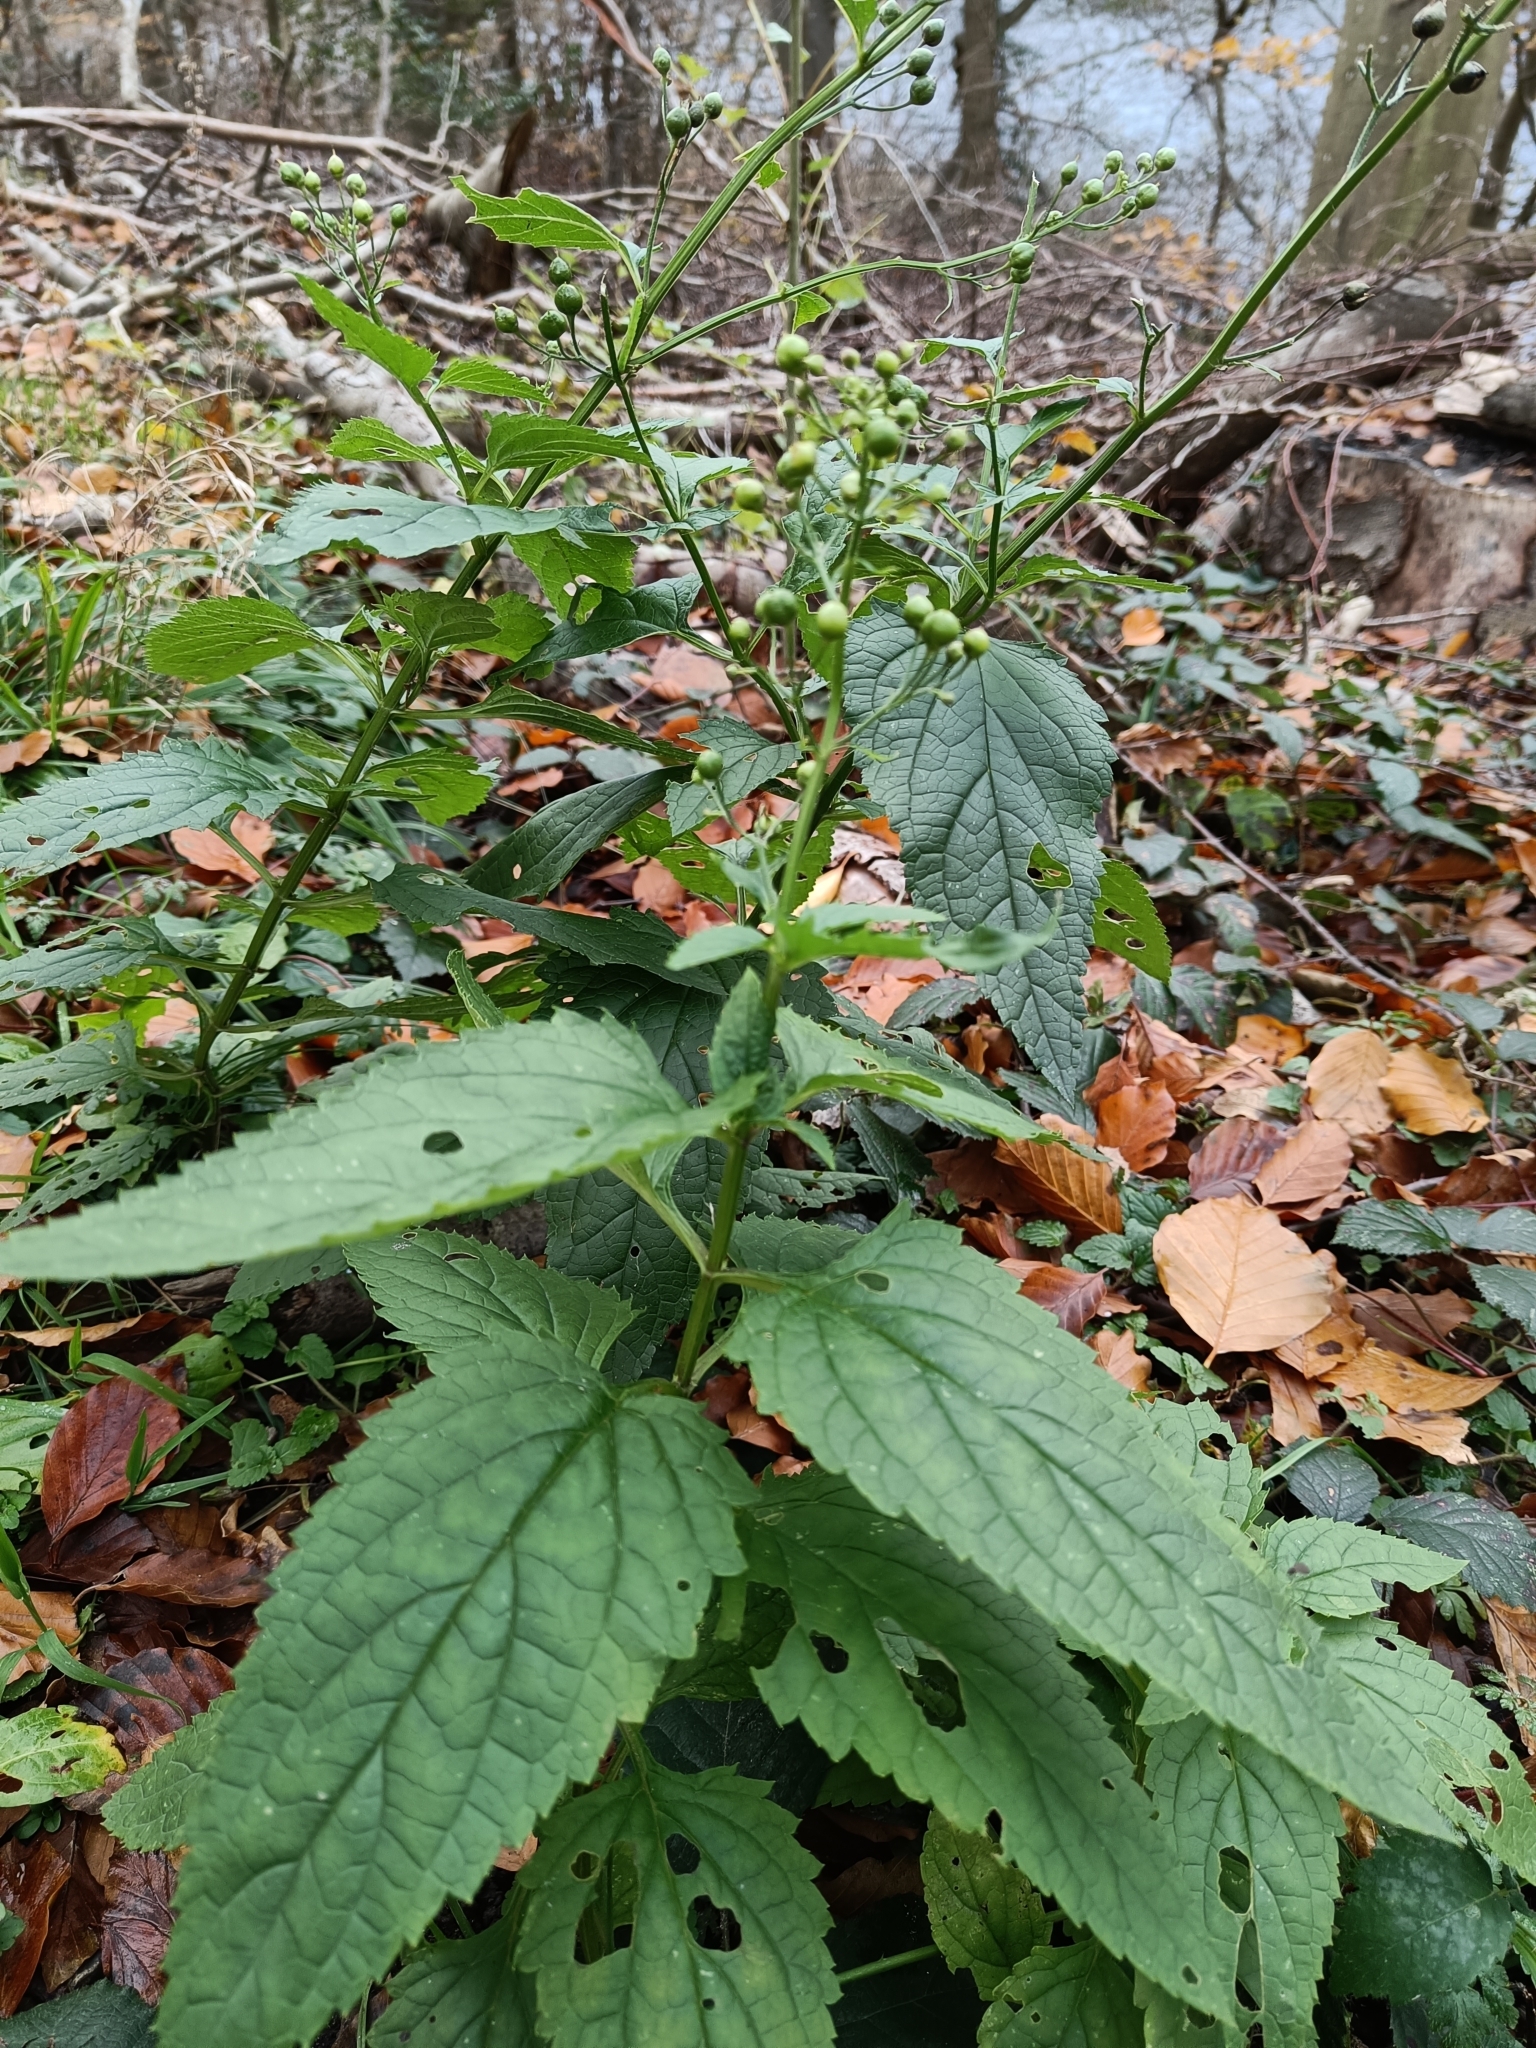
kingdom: Plantae
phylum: Tracheophyta
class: Magnoliopsida
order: Lamiales
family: Scrophulariaceae
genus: Scrophularia
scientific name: Scrophularia nodosa
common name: Common figwort
